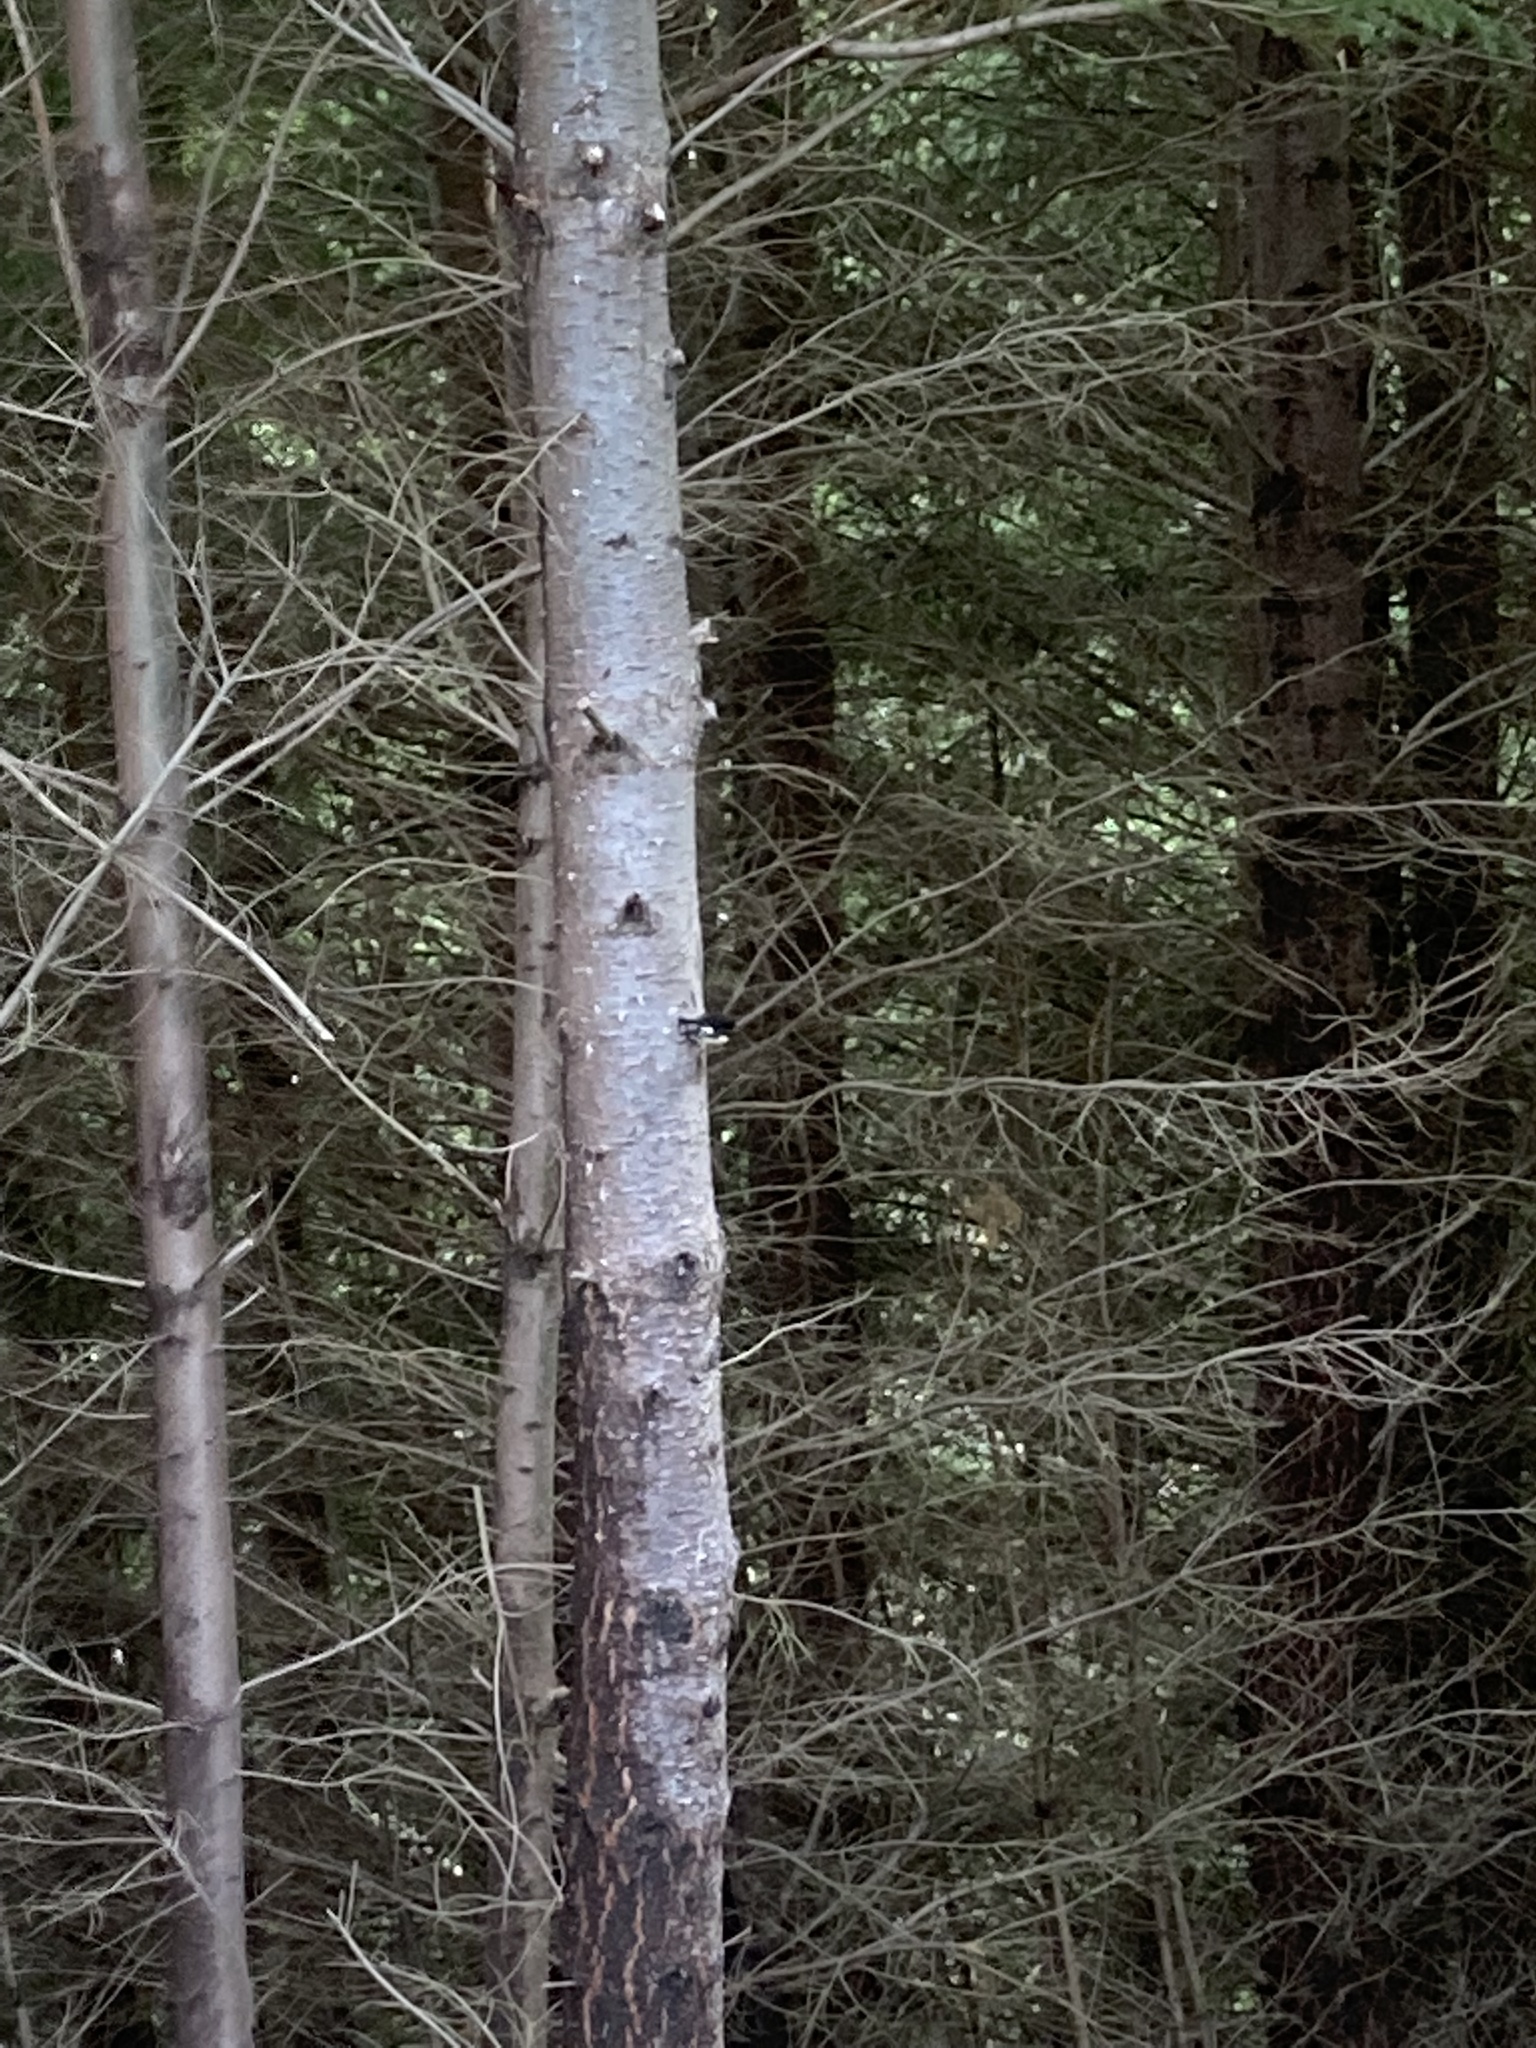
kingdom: Animalia
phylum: Chordata
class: Aves
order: Passeriformes
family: Petroicidae
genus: Petroica
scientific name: Petroica macrocephala
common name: Tomtit
